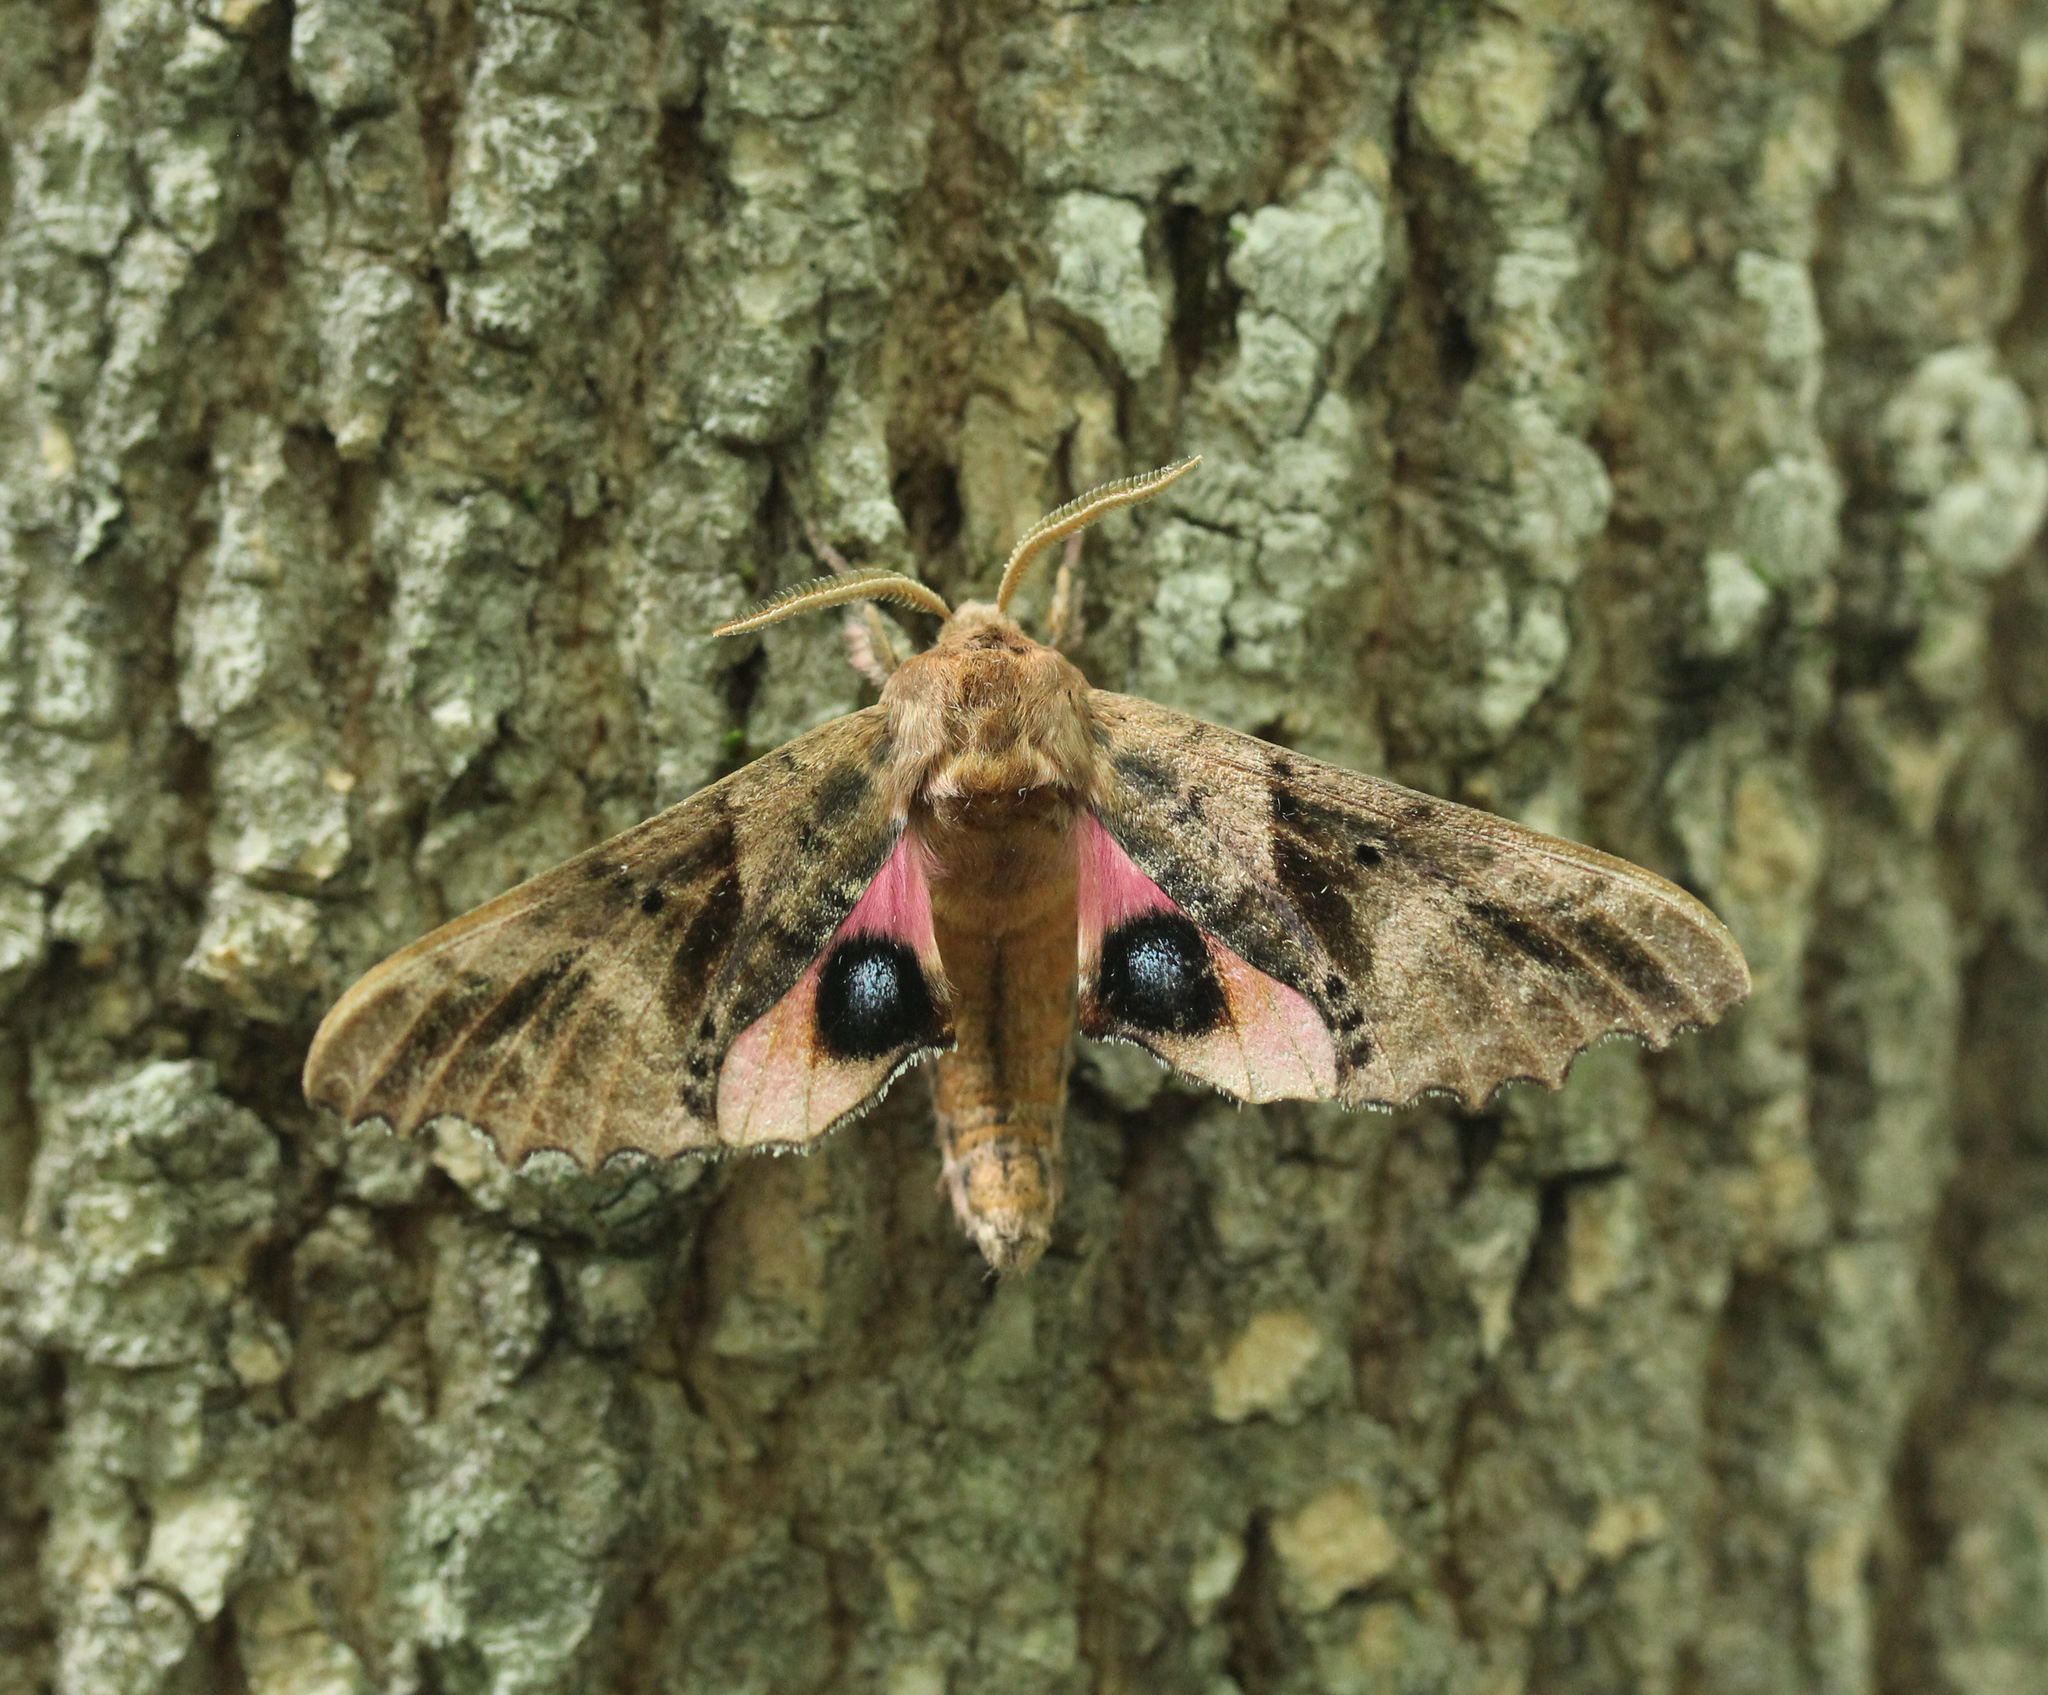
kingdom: Animalia
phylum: Arthropoda
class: Insecta
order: Lepidoptera
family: Sphingidae
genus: Paonias
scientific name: Paonias excaecata
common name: Blind-eyed sphinx
